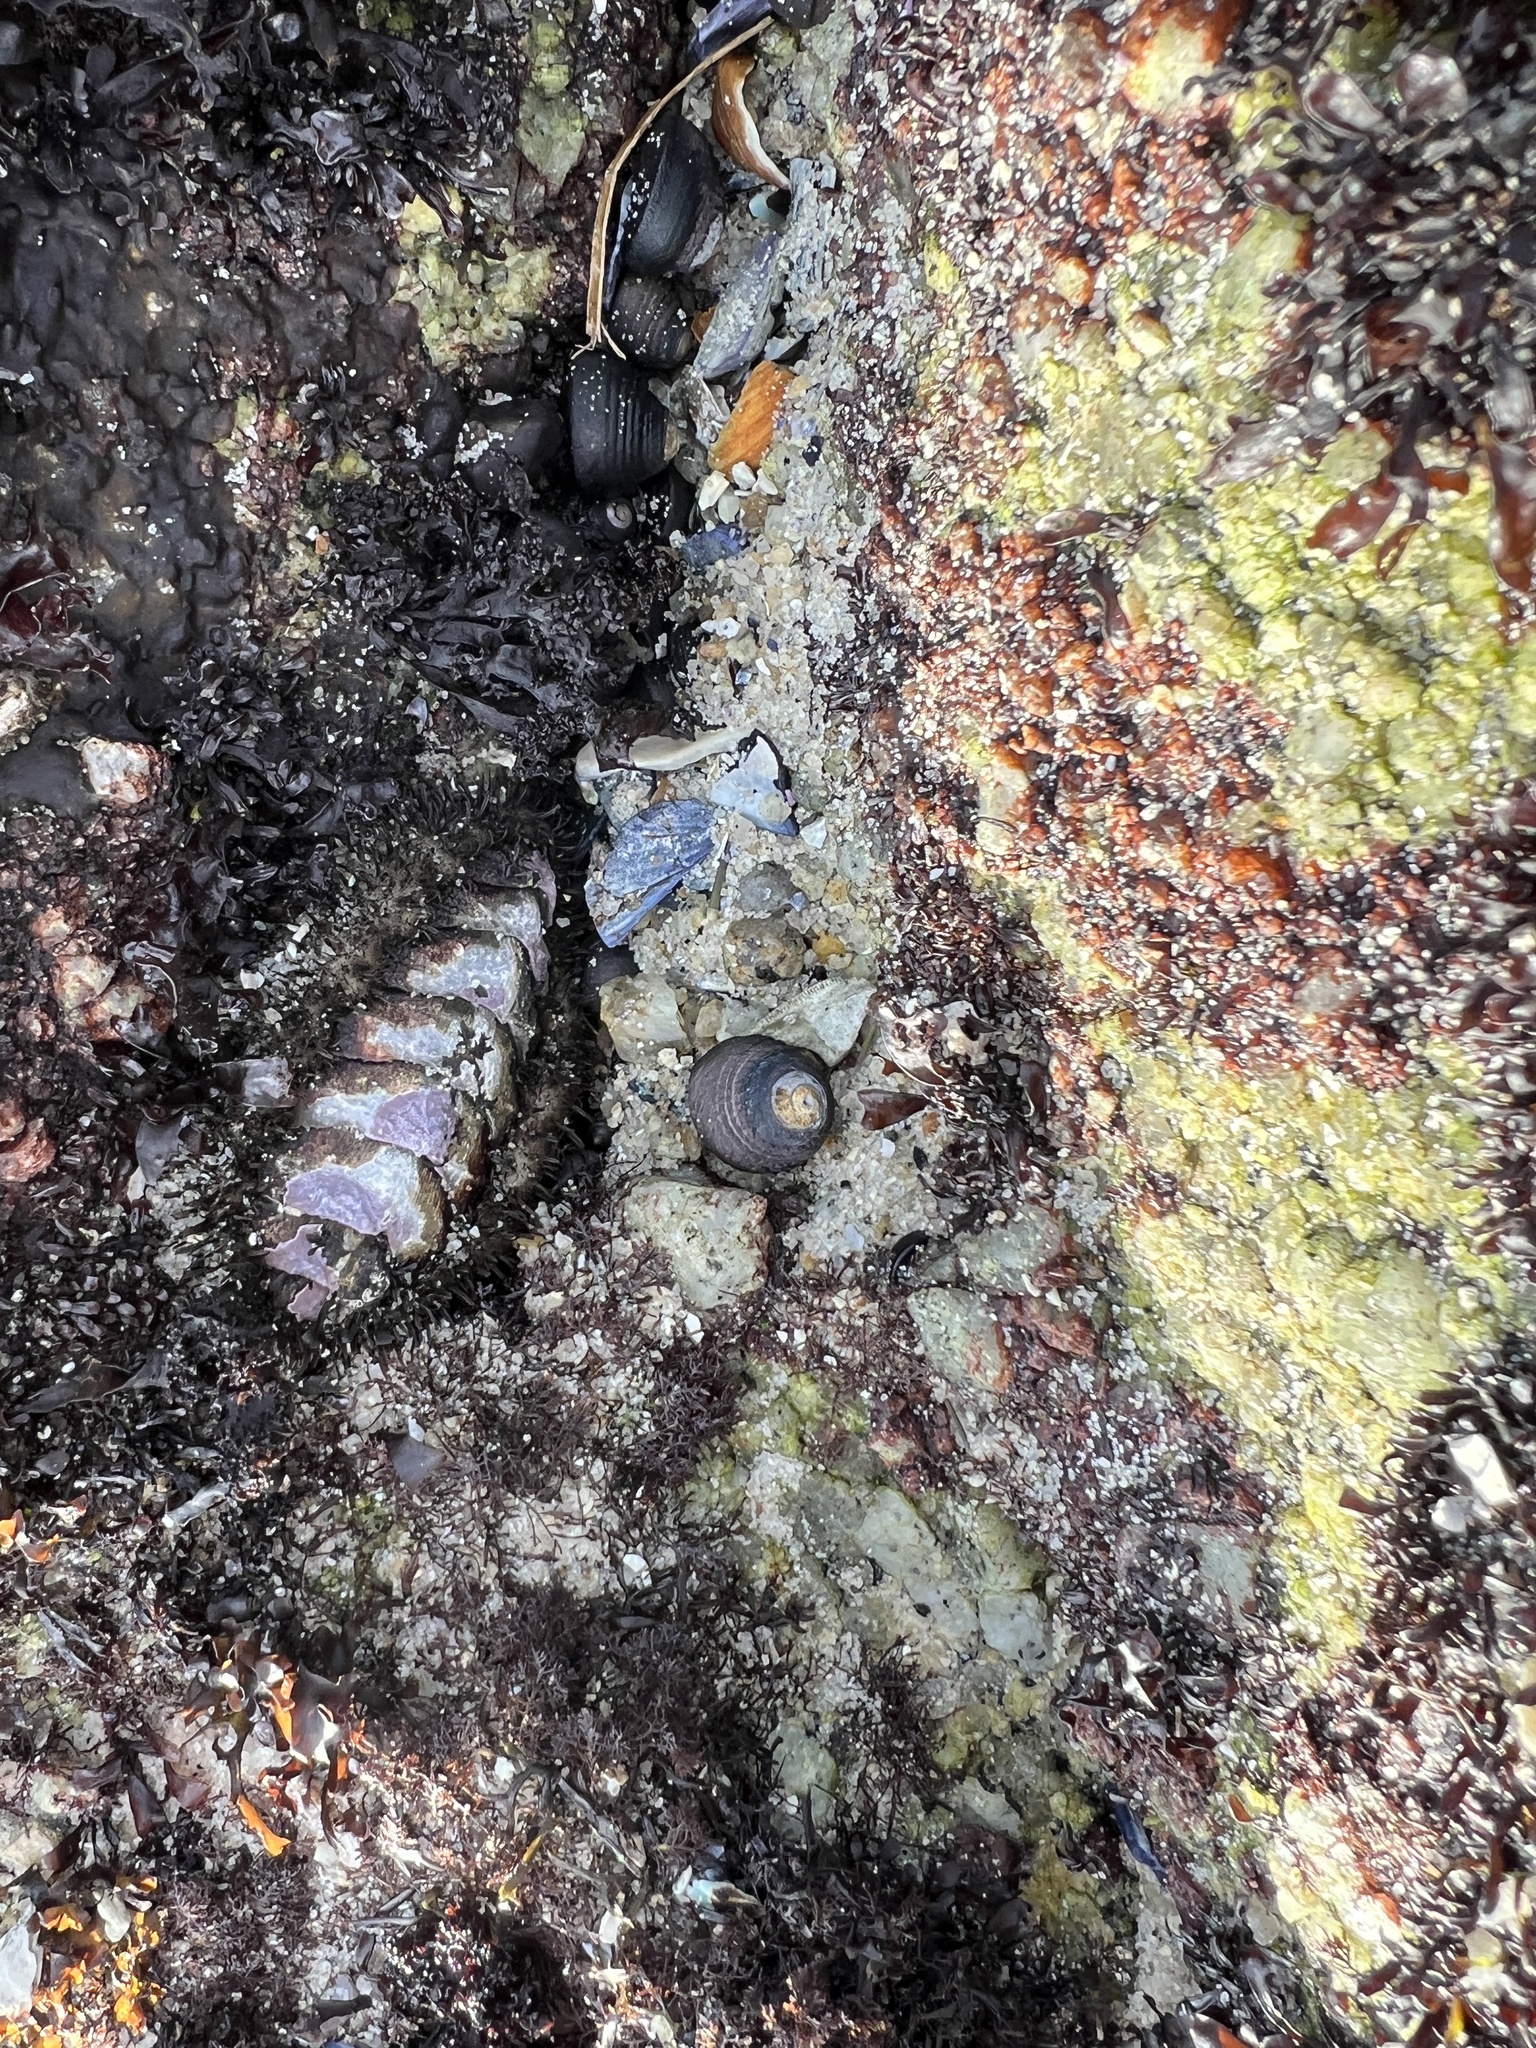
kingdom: Animalia
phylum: Mollusca
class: Polyplacophora
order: Chitonida
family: Mopaliidae
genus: Mopalia
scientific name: Mopalia muscosa
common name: Mossy chiton
